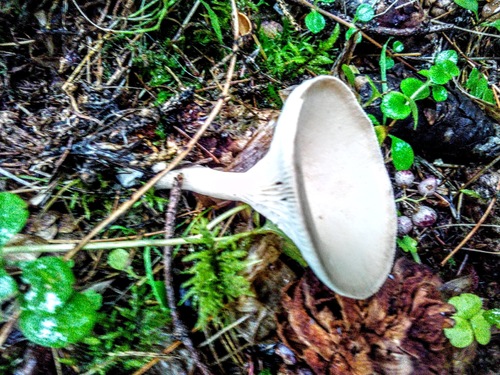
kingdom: Fungi
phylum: Basidiomycota
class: Agaricomycetes
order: Agaricales
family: Tricholomataceae
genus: Infundibulicybe
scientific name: Infundibulicybe gibba
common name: Common funnel
